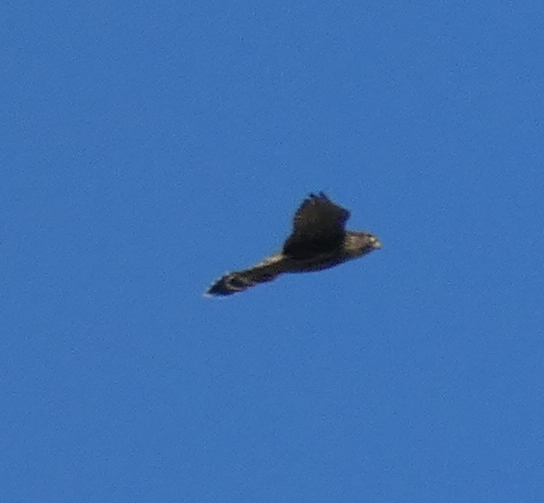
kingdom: Animalia
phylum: Chordata
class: Aves
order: Falconiformes
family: Falconidae
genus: Falco
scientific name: Falco columbarius
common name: Merlin
